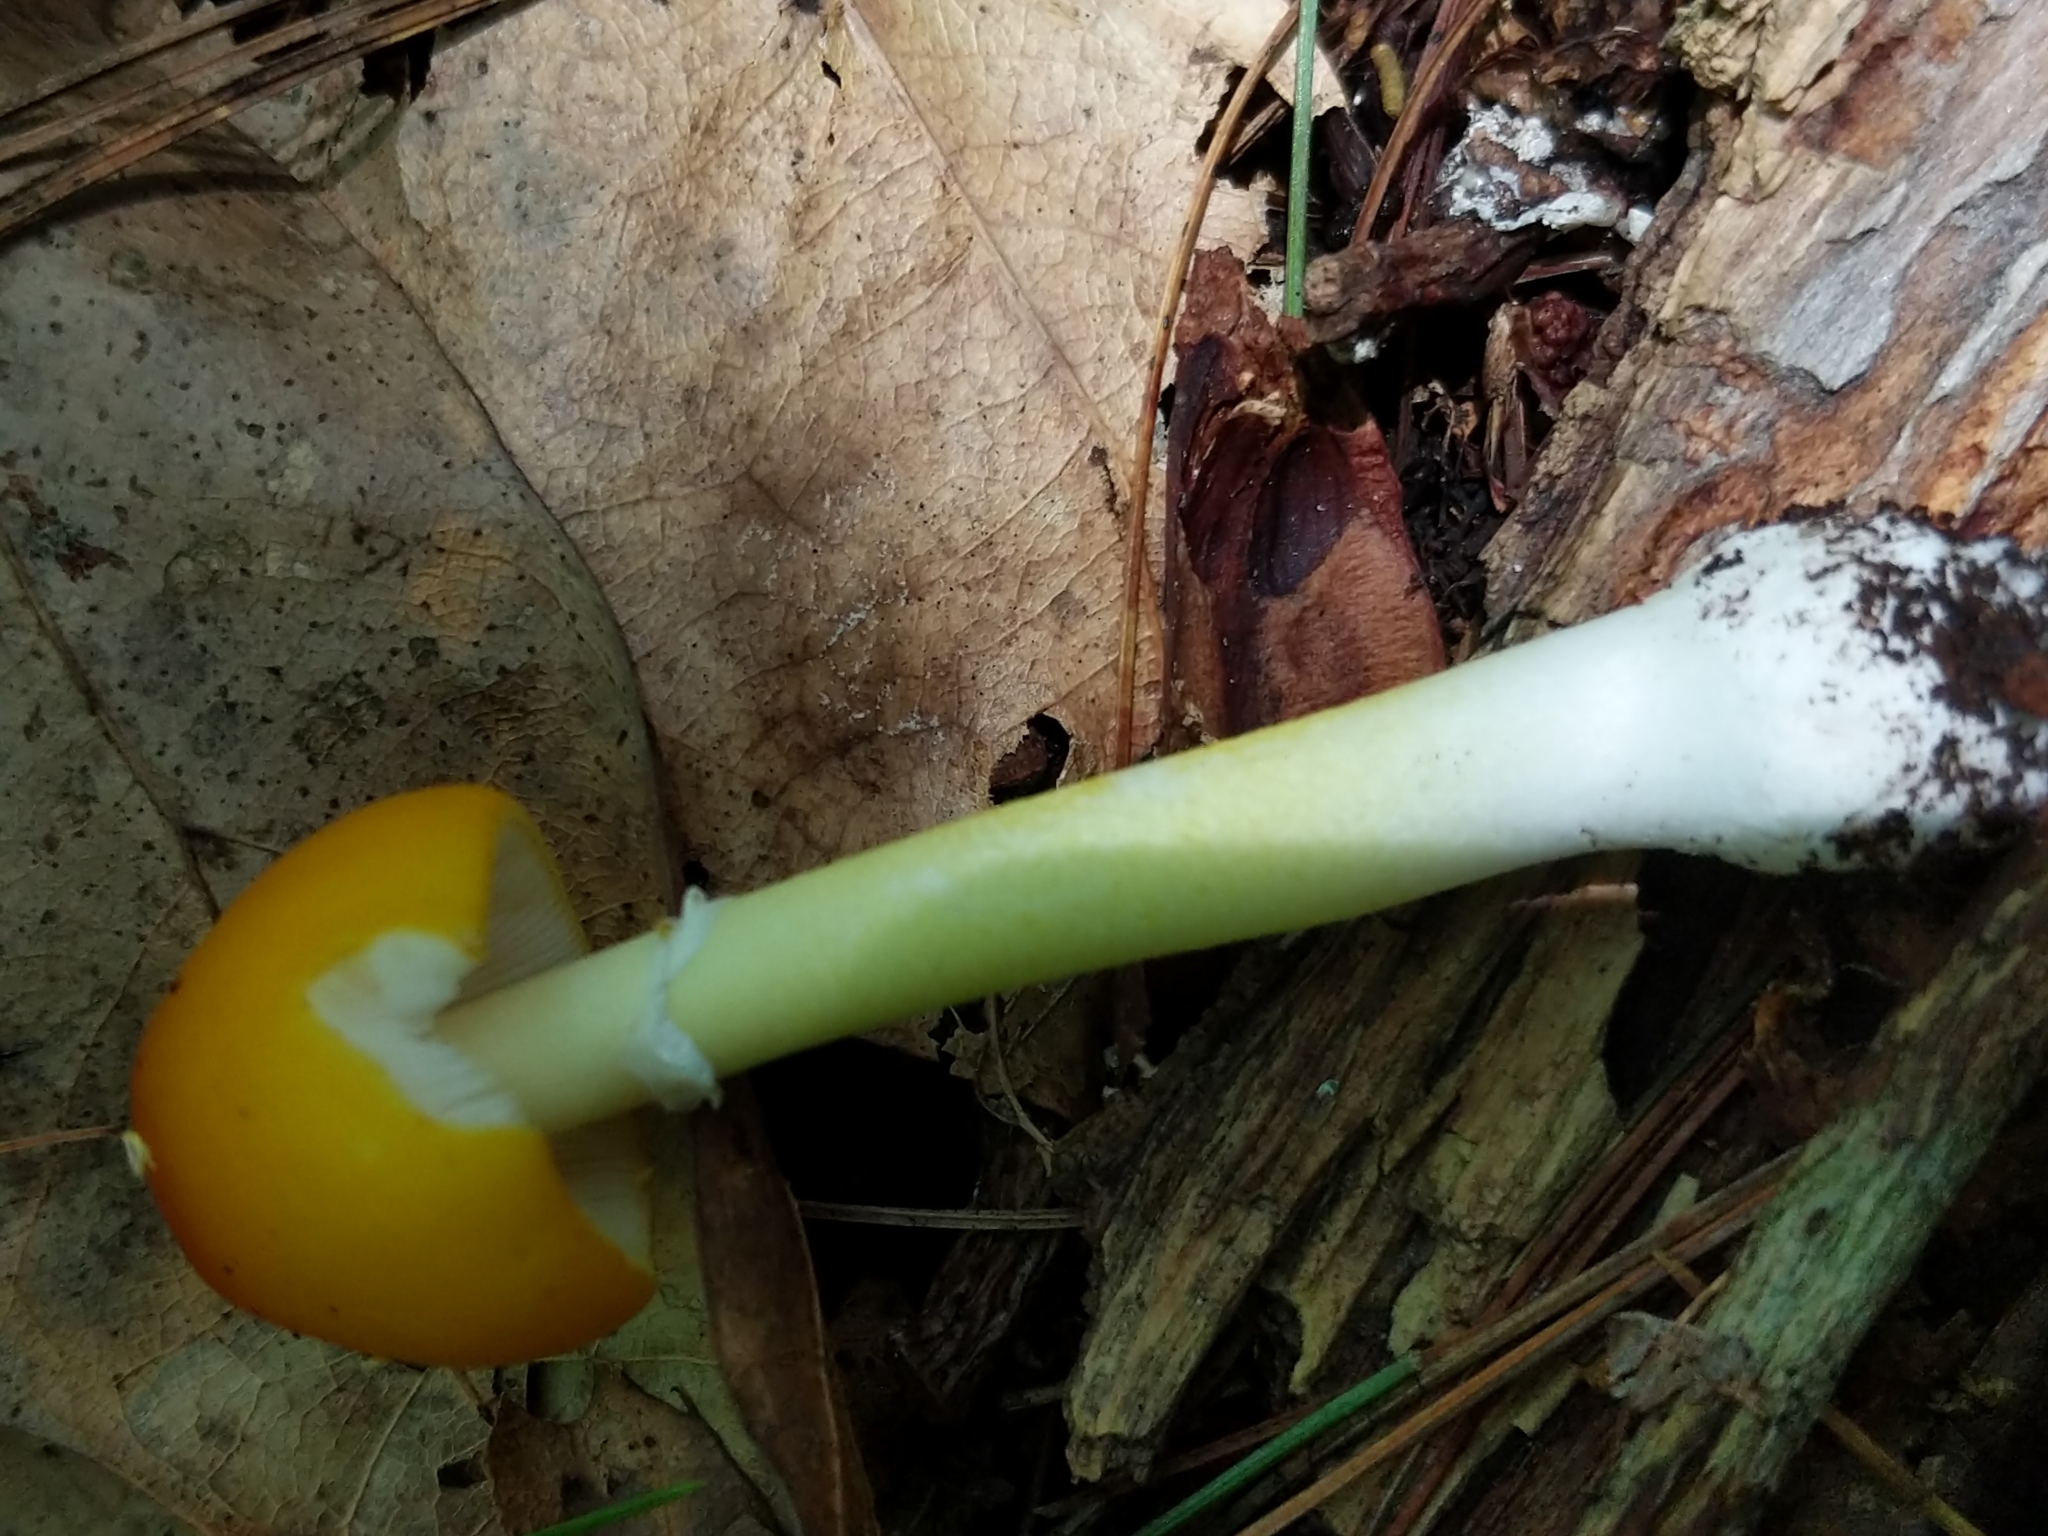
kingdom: Fungi
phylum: Basidiomycota
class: Agaricomycetes
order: Agaricales
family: Amanitaceae
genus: Amanita
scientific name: Amanita flavoconia
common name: Yellow patches
